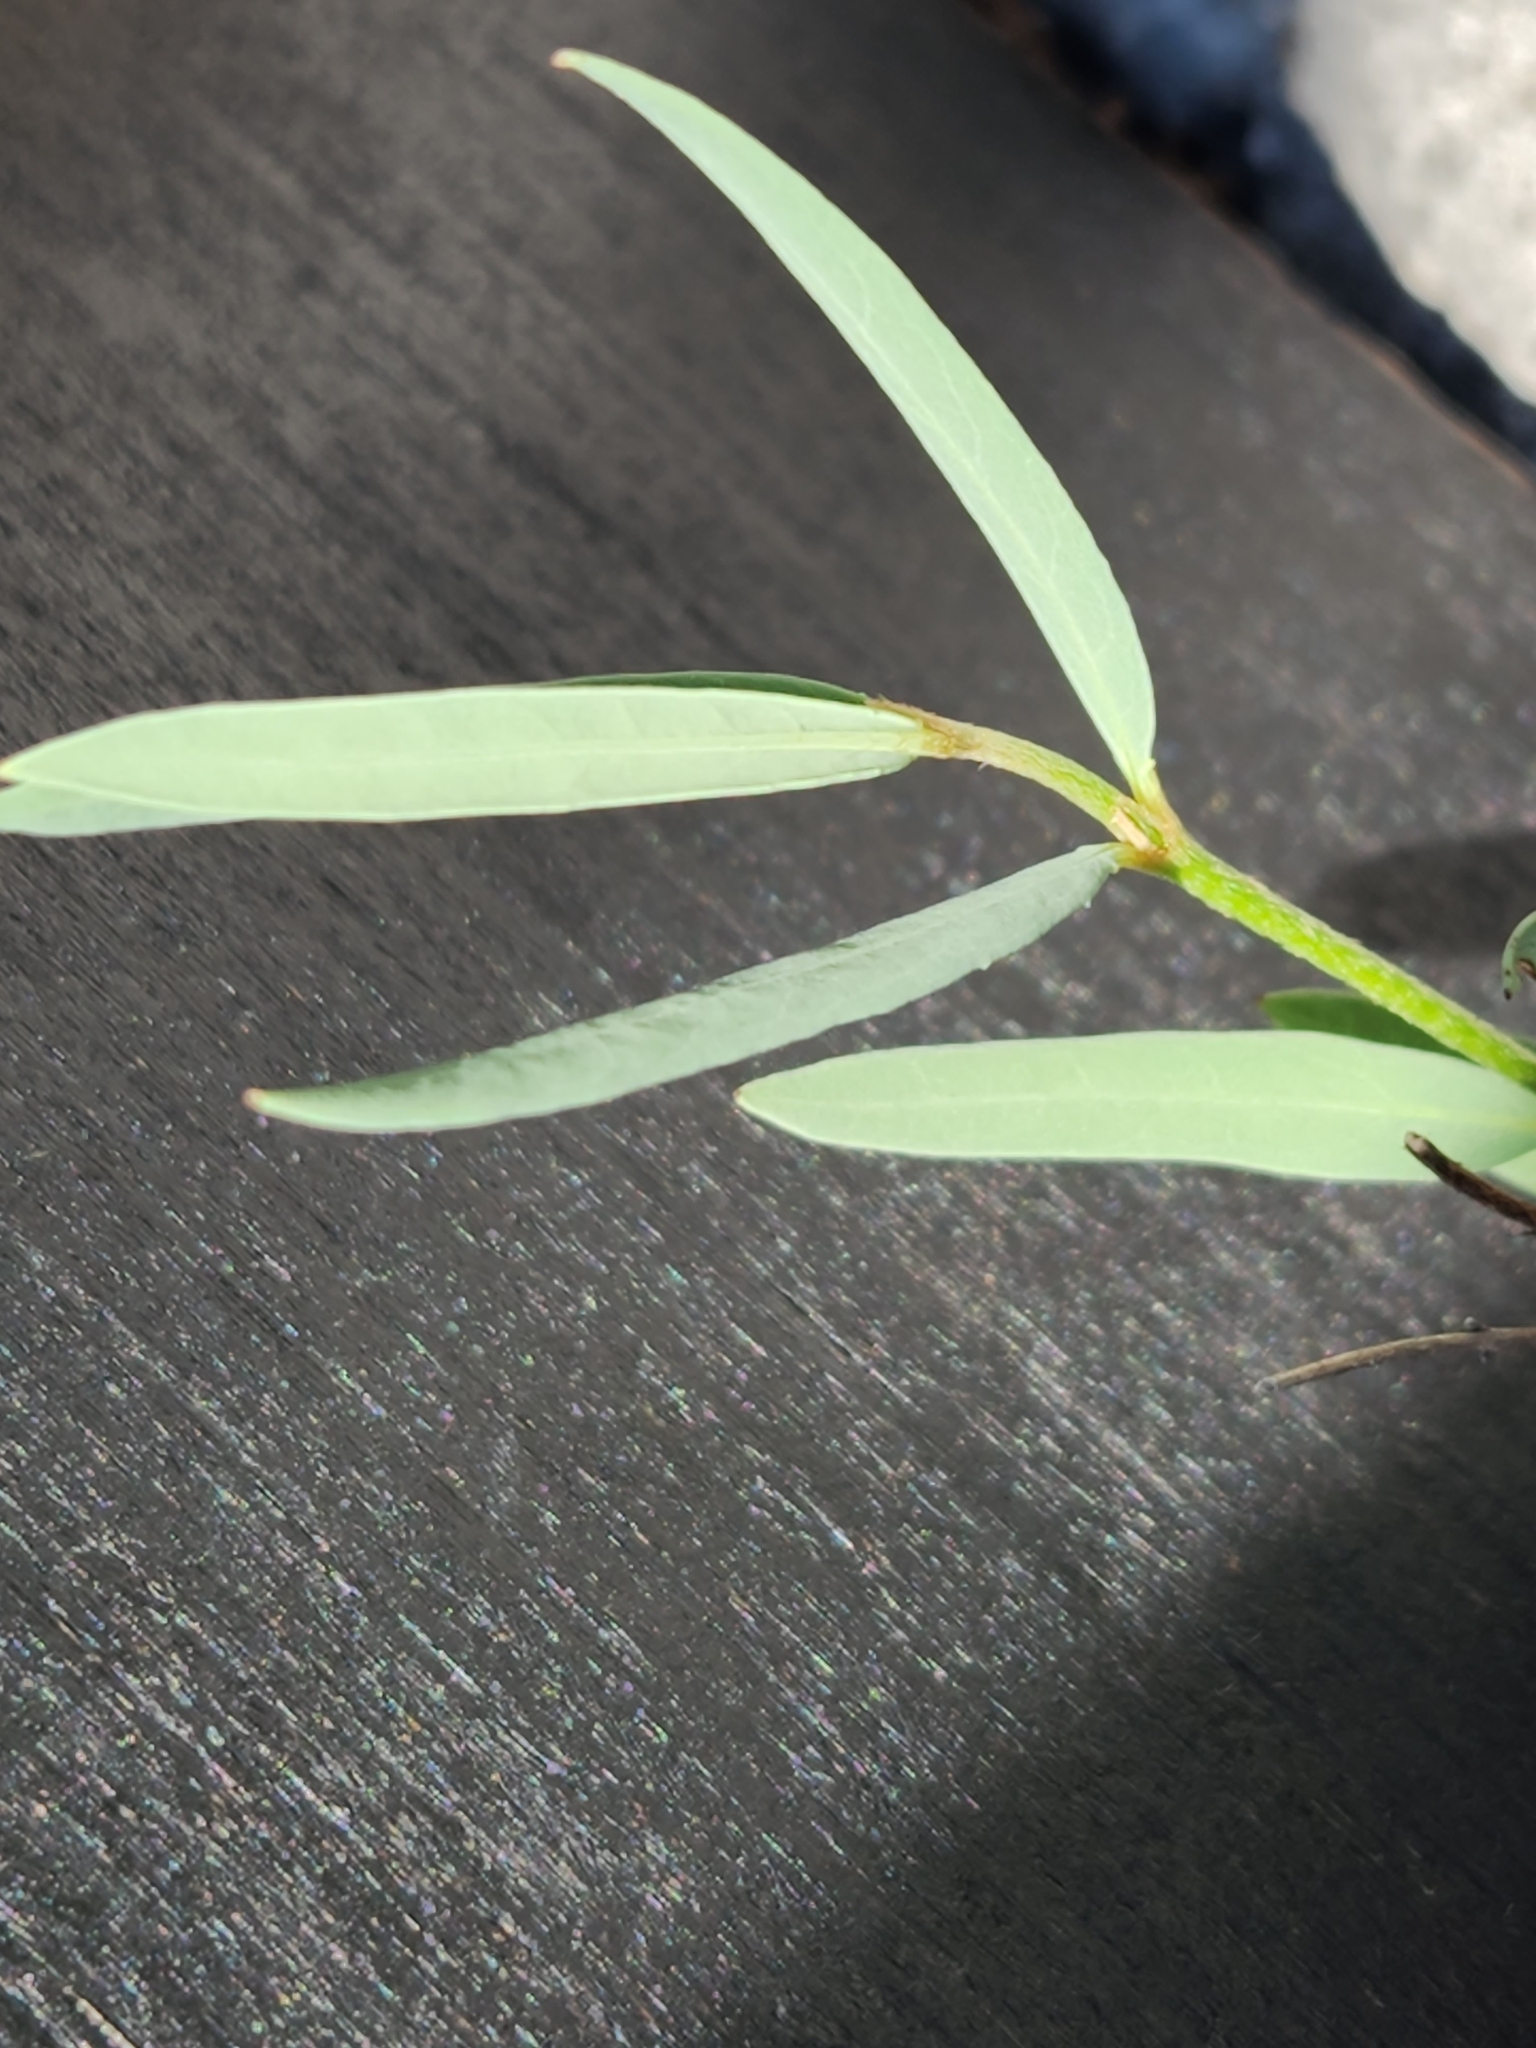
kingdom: Plantae
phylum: Tracheophyta
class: Magnoliopsida
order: Malpighiales
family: Malpighiaceae
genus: Galphimia
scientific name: Galphimia angustifolia
